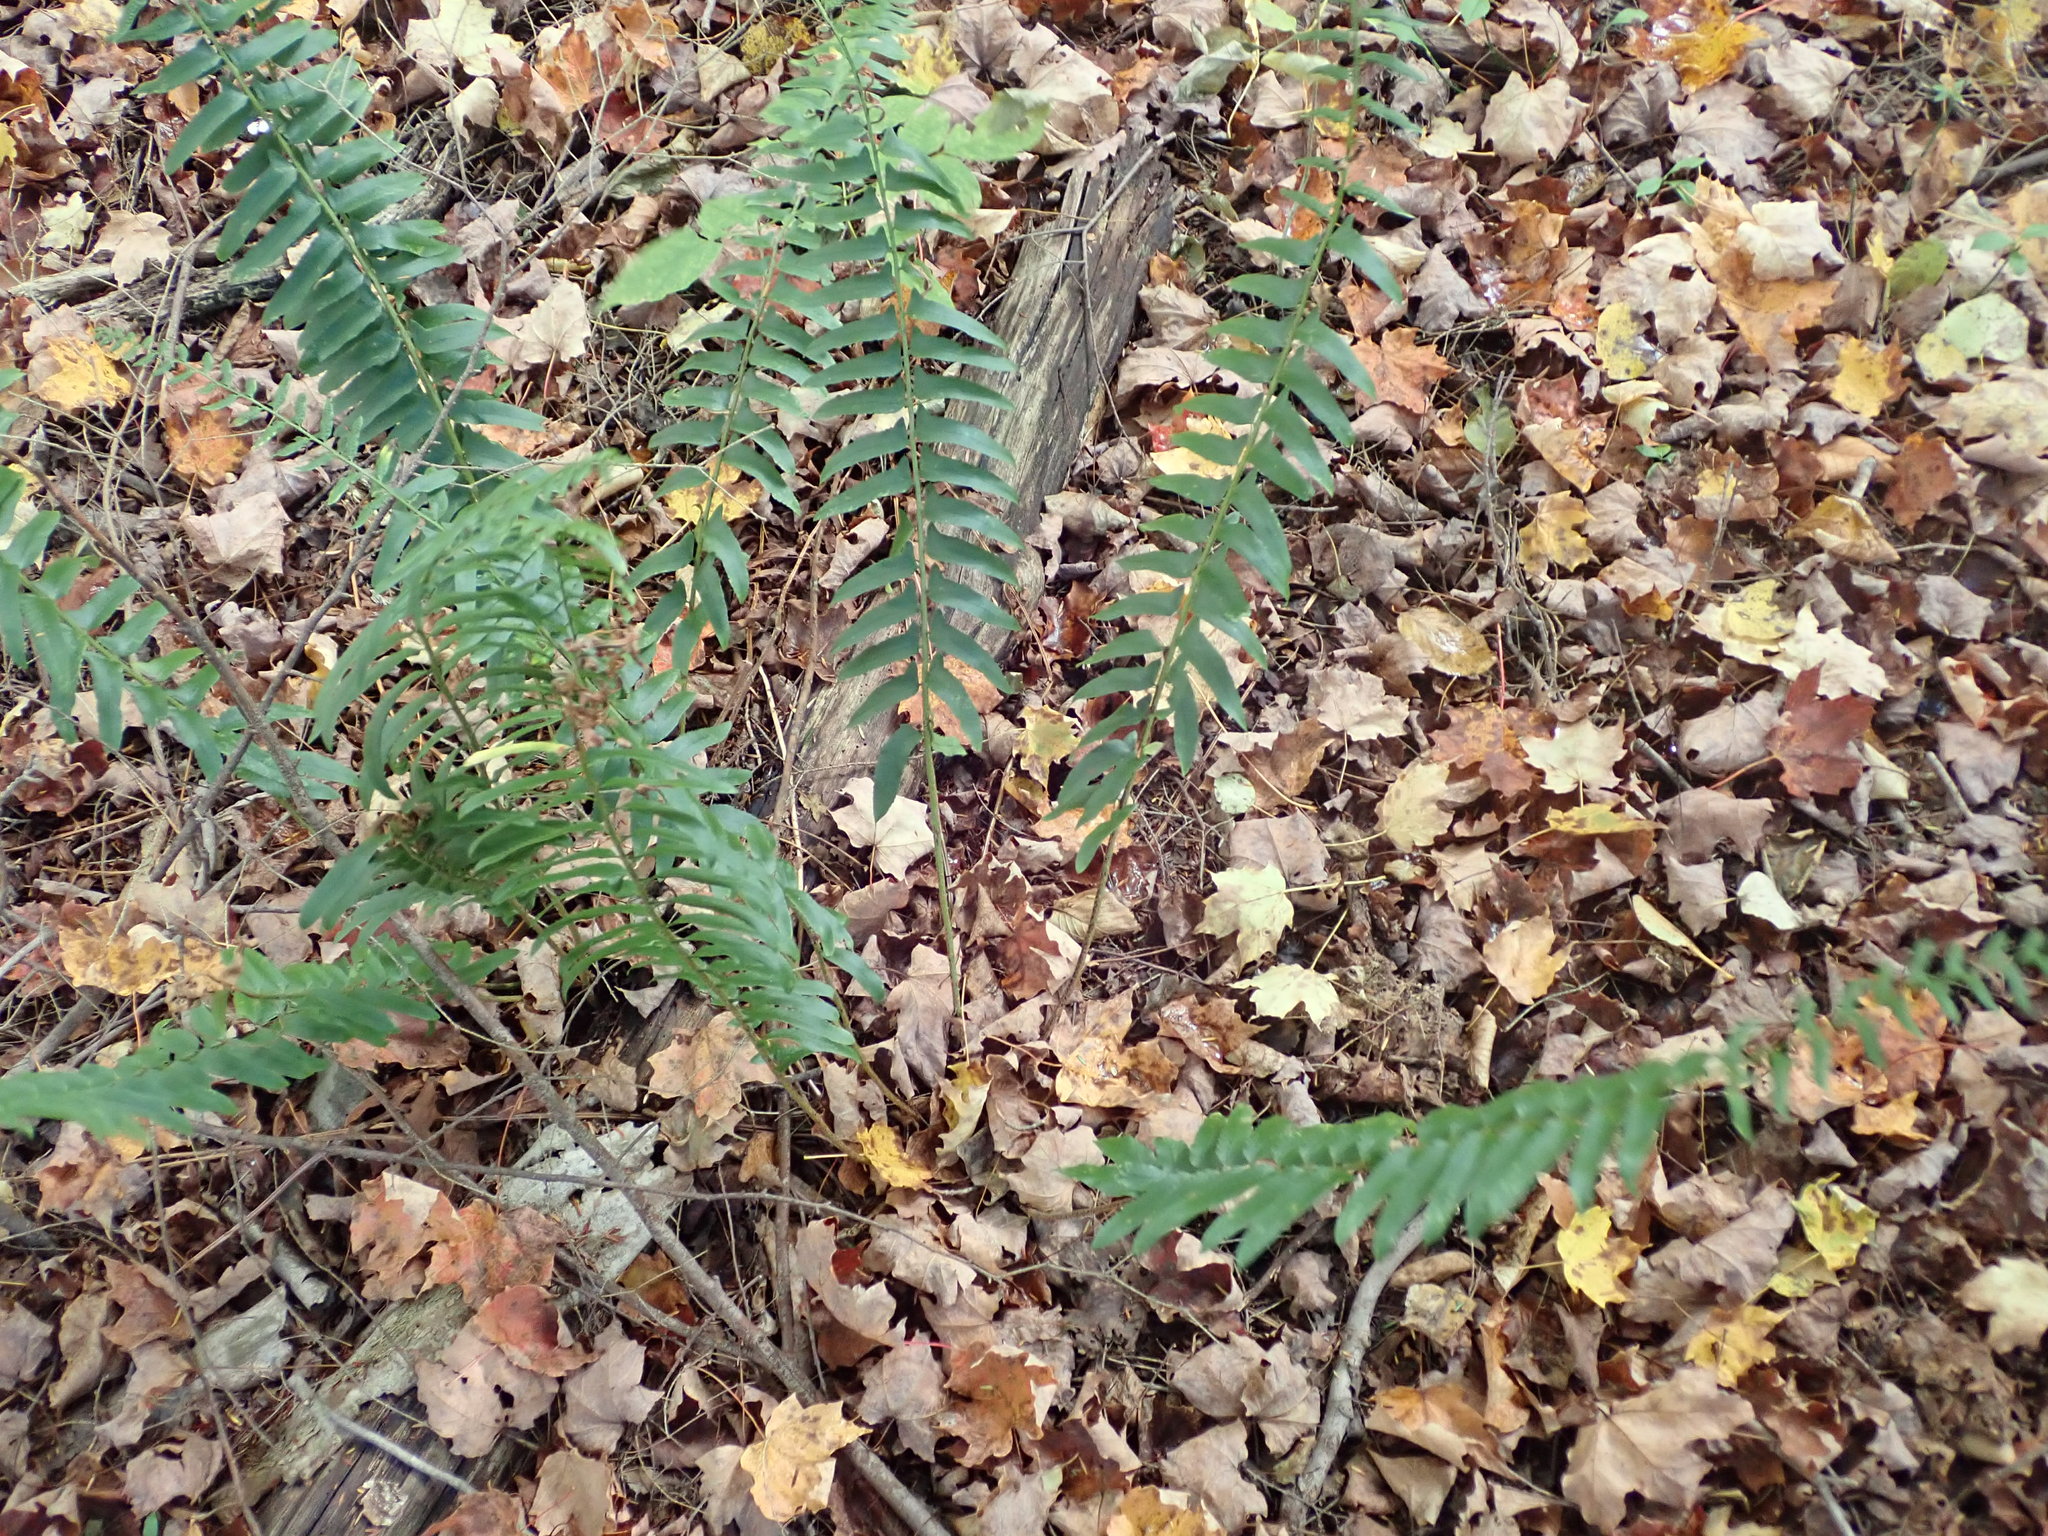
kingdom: Plantae
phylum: Tracheophyta
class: Polypodiopsida
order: Polypodiales
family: Dryopteridaceae
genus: Polystichum
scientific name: Polystichum acrostichoides
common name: Christmas fern
